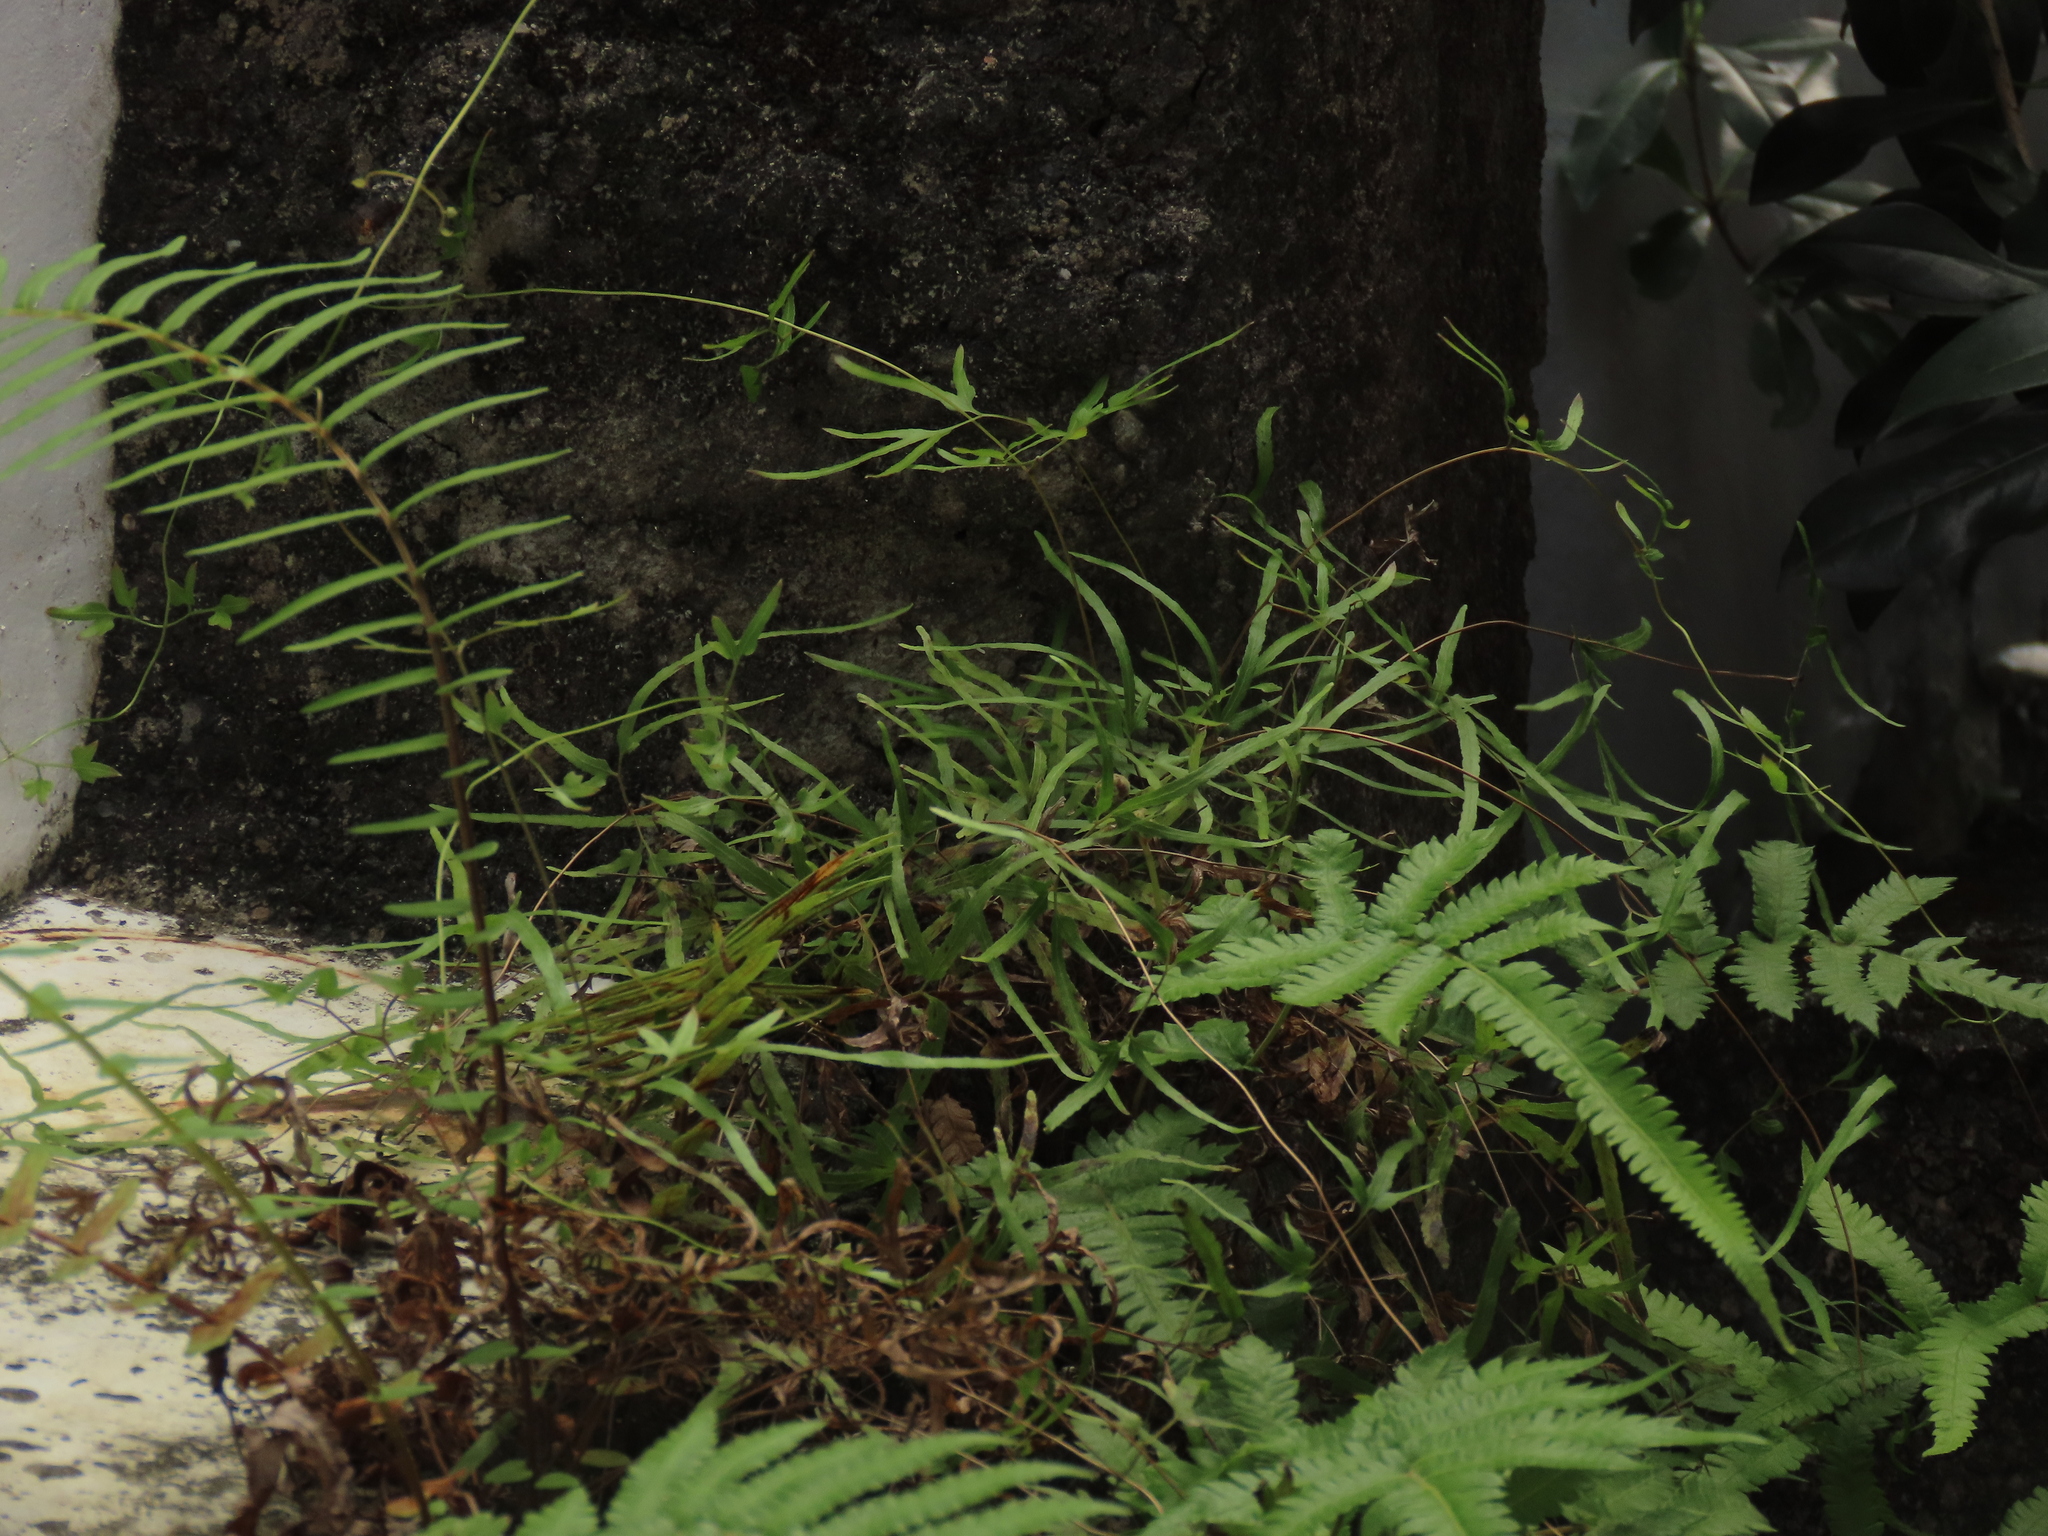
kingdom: Plantae
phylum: Tracheophyta
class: Polypodiopsida
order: Schizaeales
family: Lygodiaceae
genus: Lygodium
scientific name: Lygodium japonicum
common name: Japanese climbing fern
